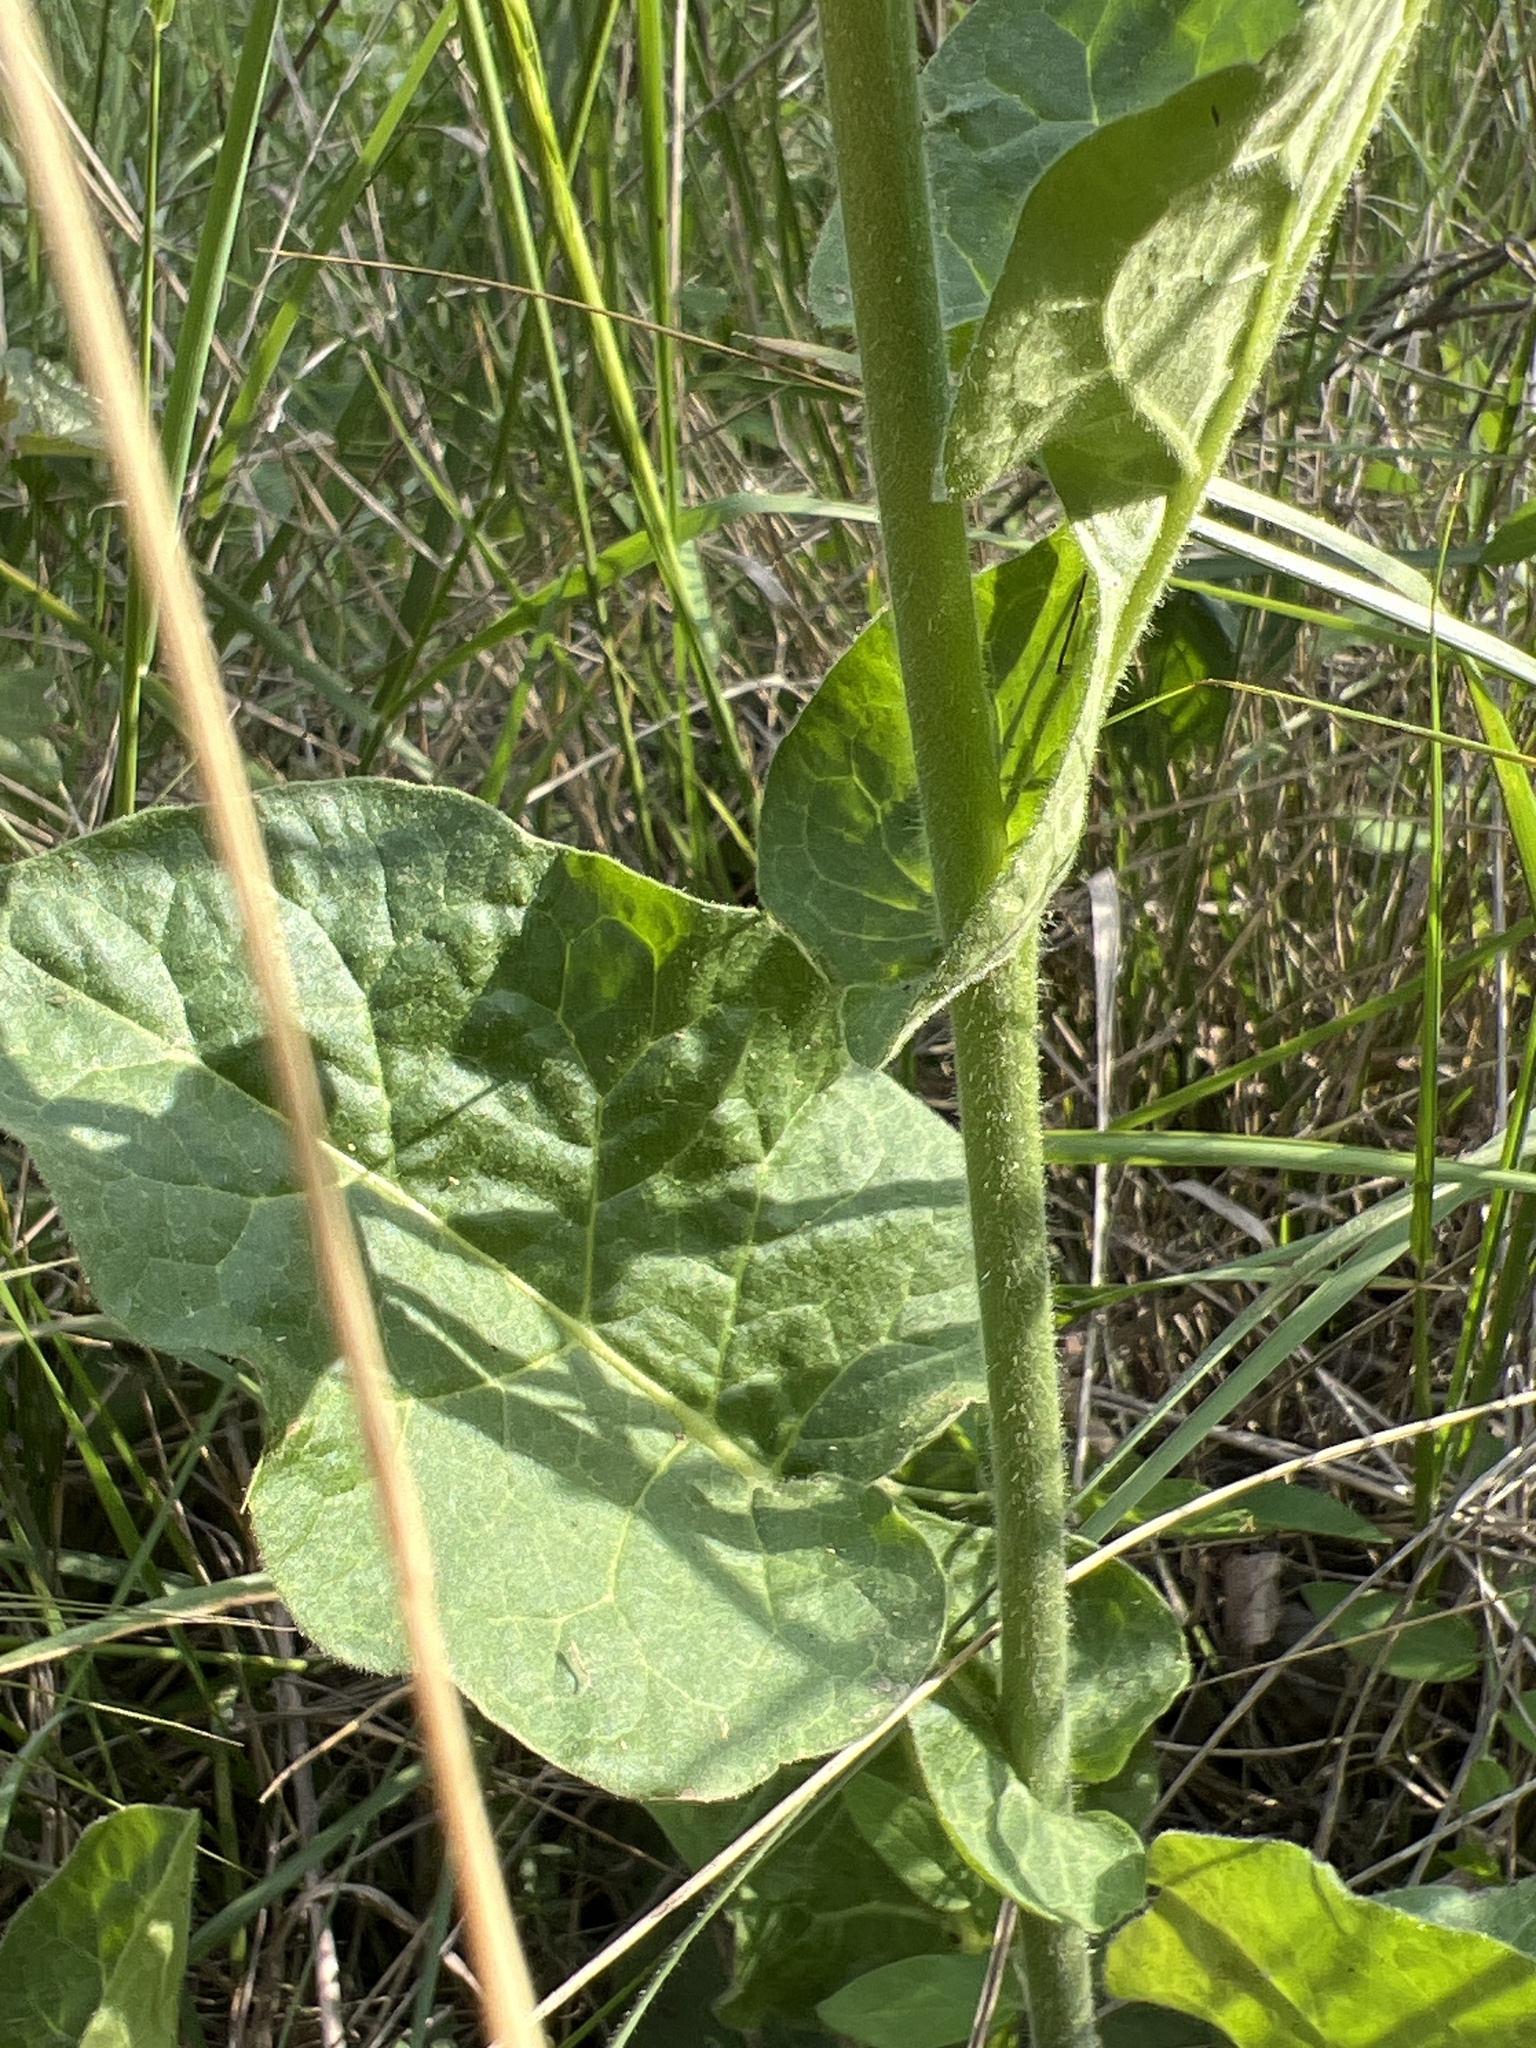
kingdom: Plantae
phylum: Tracheophyta
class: Magnoliopsida
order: Solanales
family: Solanaceae
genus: Nicotiana
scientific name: Nicotiana repanda
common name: Fiddle-leaf tobacco
